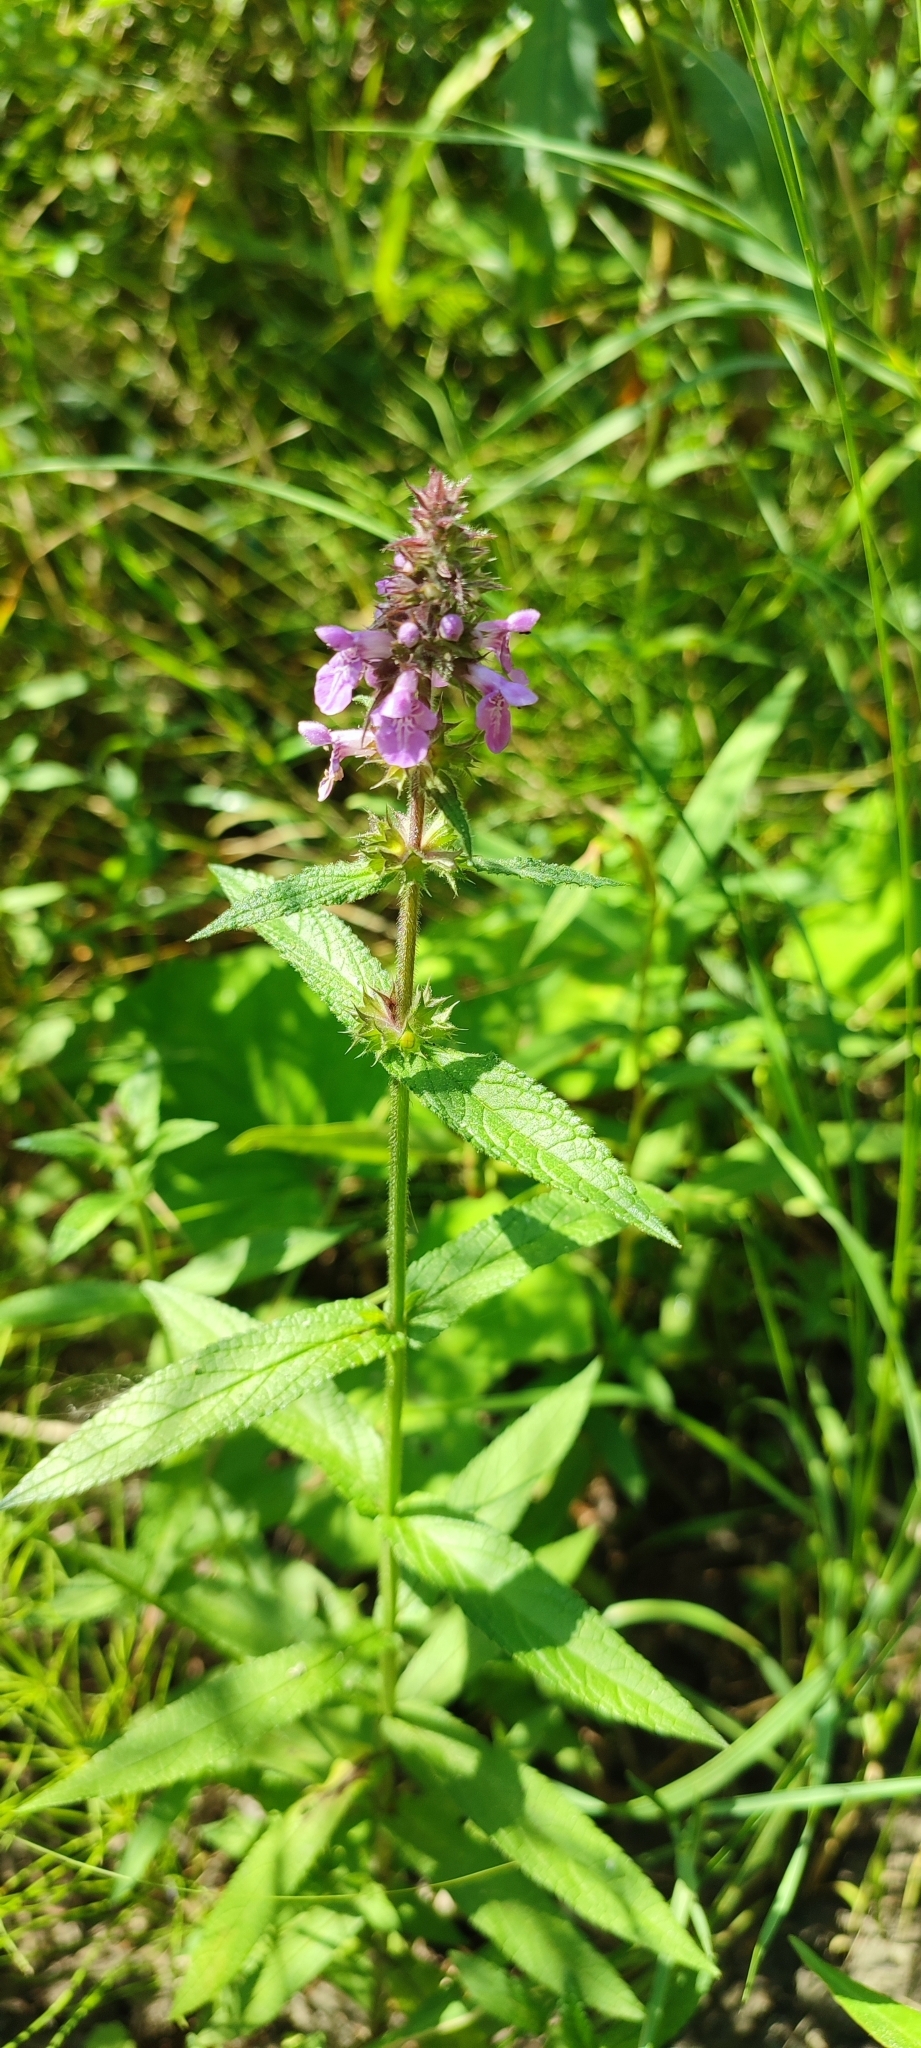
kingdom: Plantae
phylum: Tracheophyta
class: Magnoliopsida
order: Lamiales
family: Lamiaceae
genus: Stachys
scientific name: Stachys palustris
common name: Marsh woundwort
